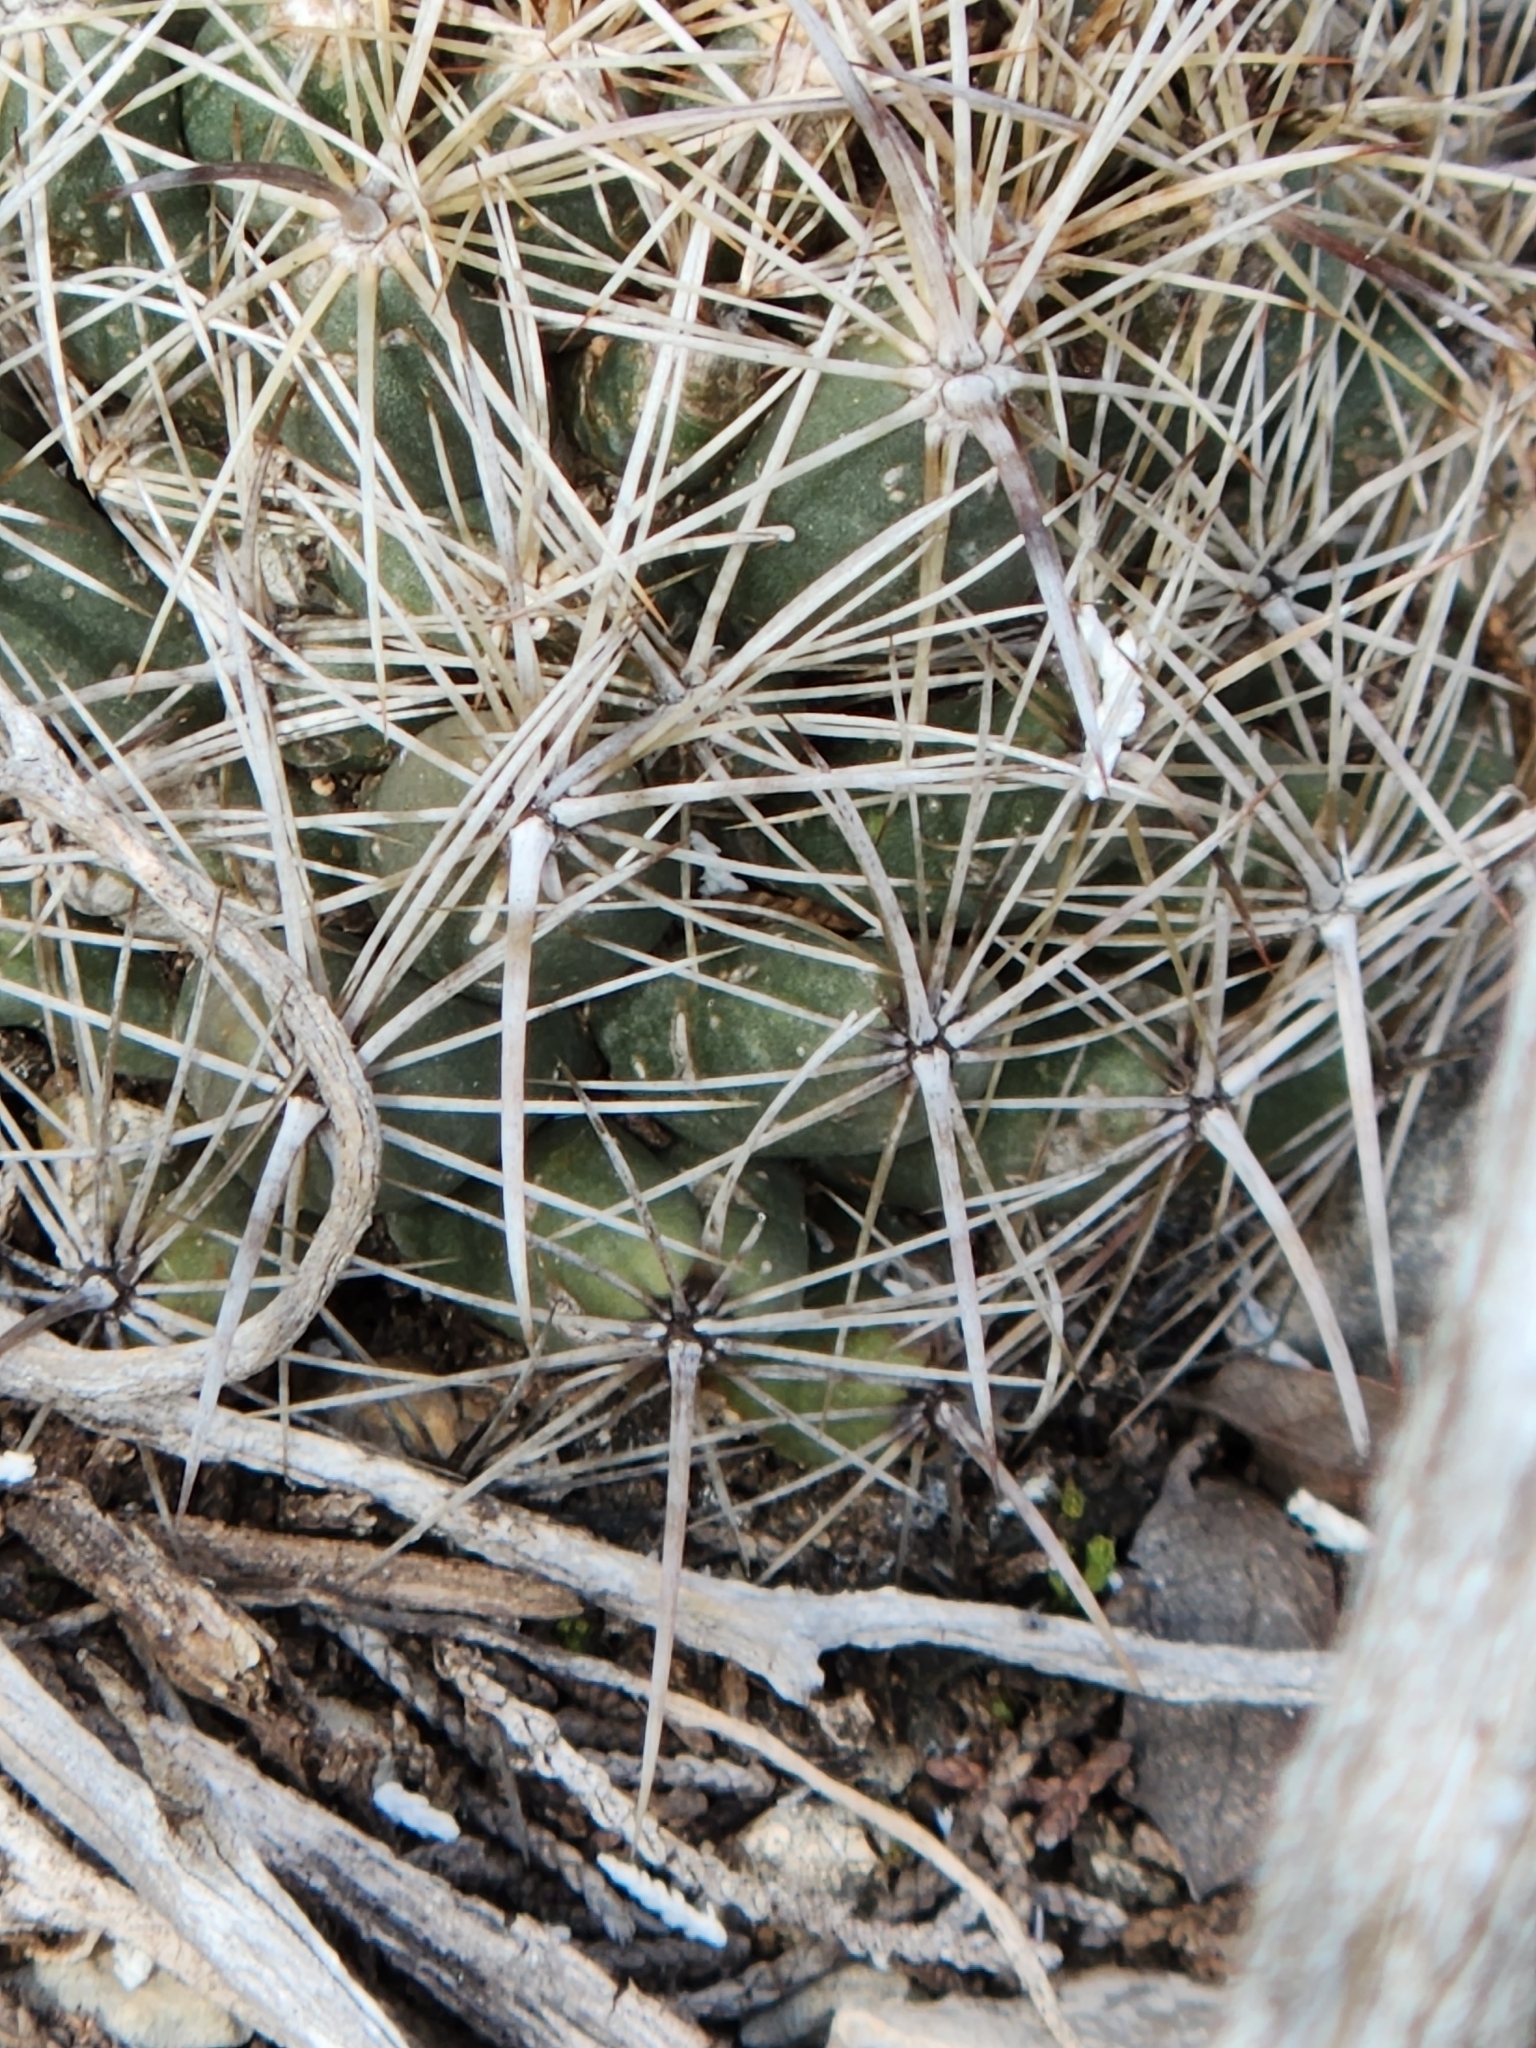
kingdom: Plantae
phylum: Tracheophyta
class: Magnoliopsida
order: Caryophyllales
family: Cactaceae
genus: Coryphantha
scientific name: Coryphantha sulcata
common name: Finger cactus
